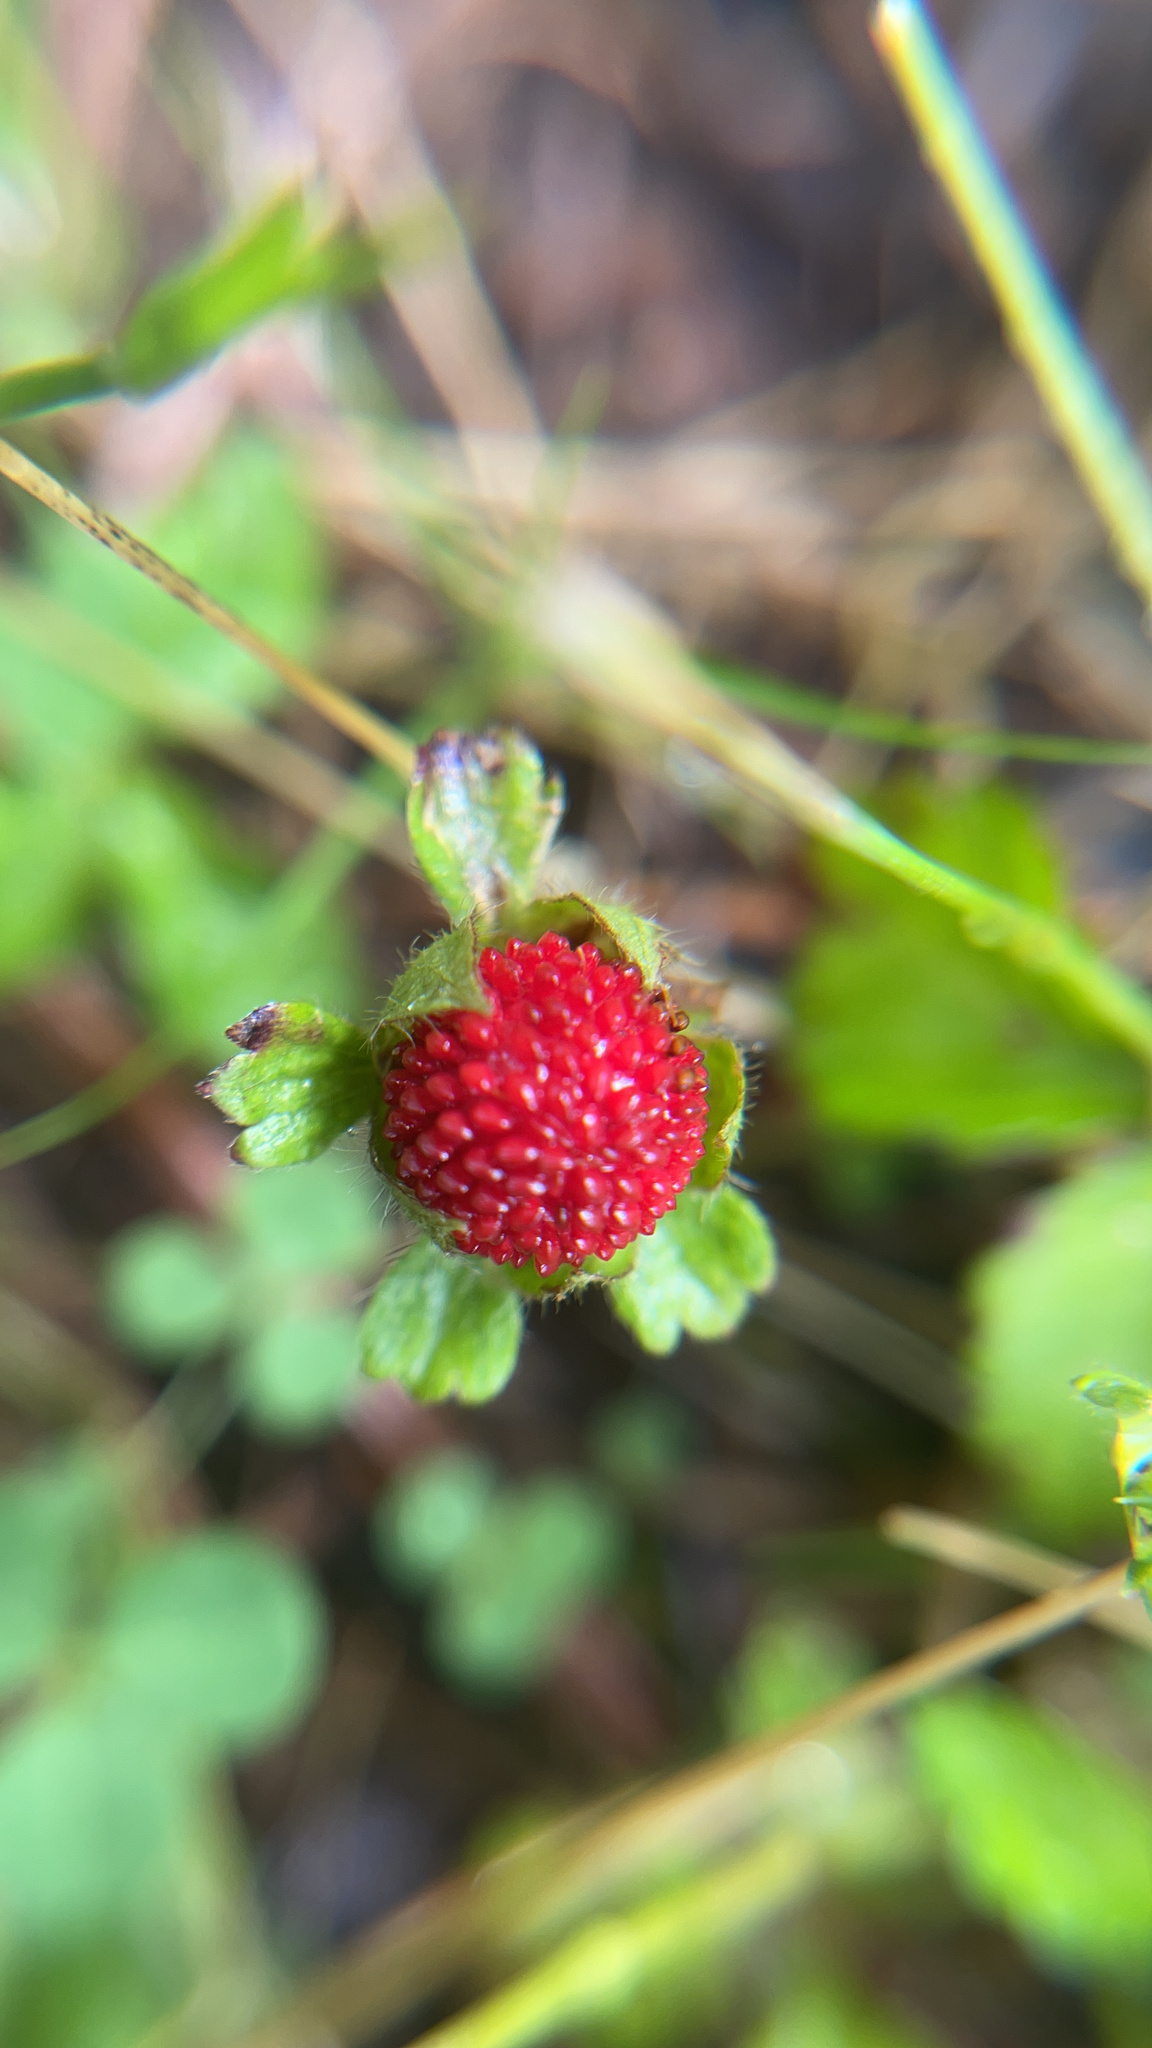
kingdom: Plantae
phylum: Tracheophyta
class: Magnoliopsida
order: Rosales
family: Rosaceae
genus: Potentilla
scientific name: Potentilla indica
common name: Yellow-flowered strawberry
